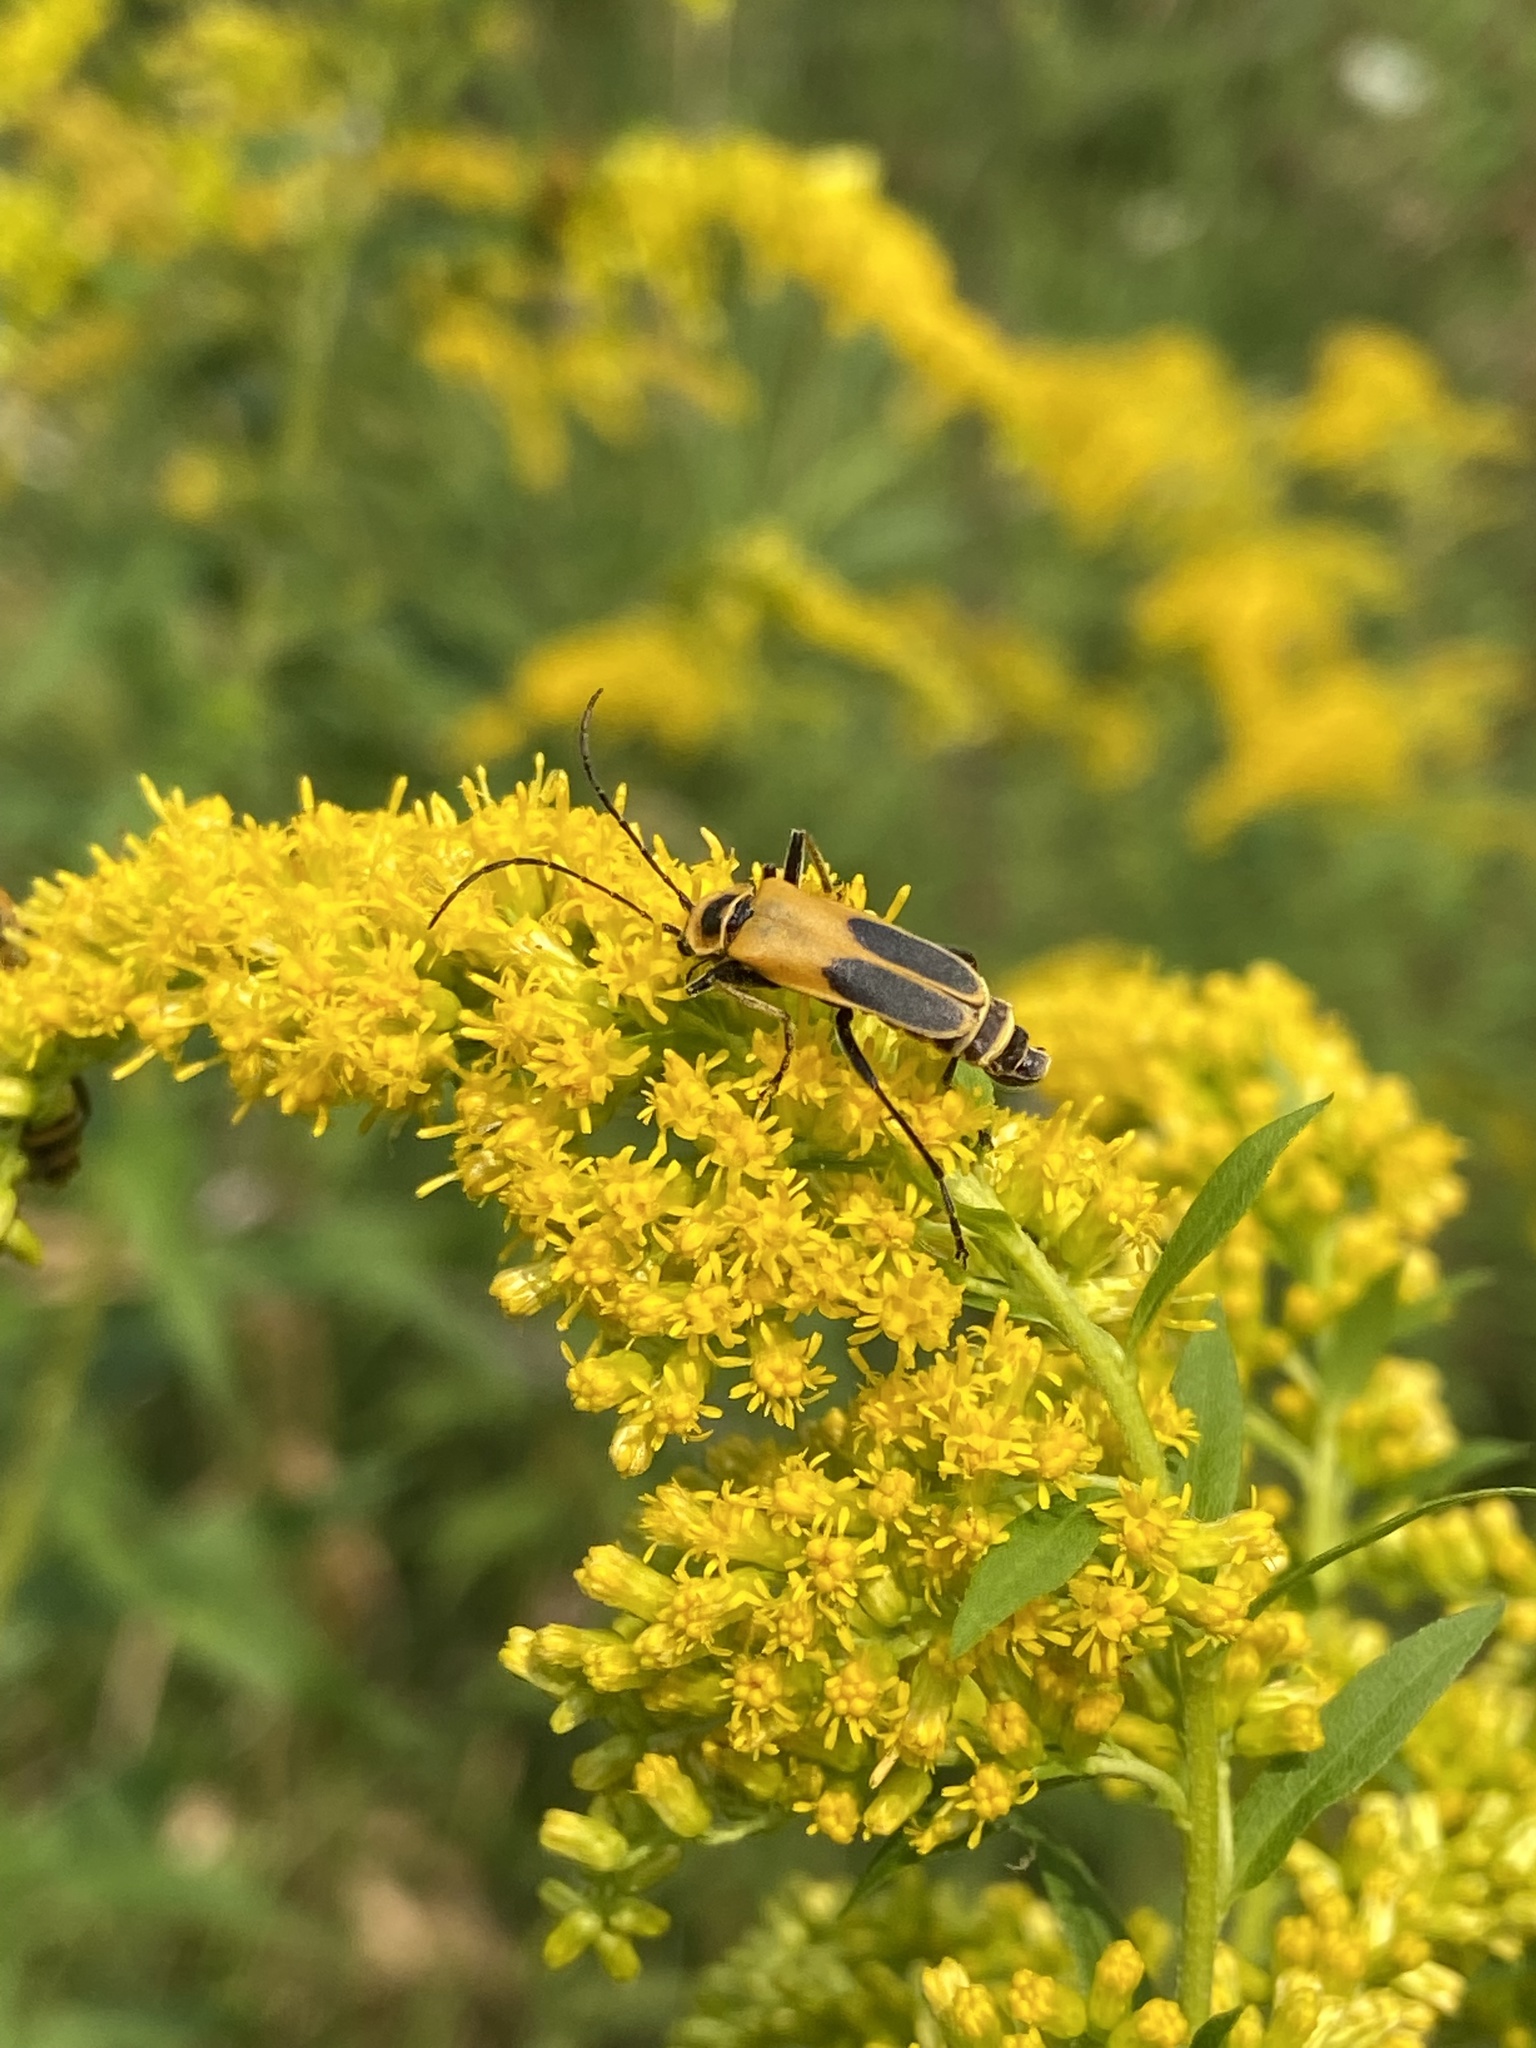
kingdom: Animalia
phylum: Arthropoda
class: Insecta
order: Coleoptera
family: Cantharidae
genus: Chauliognathus
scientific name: Chauliognathus pensylvanicus
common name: Goldenrod soldier beetle
